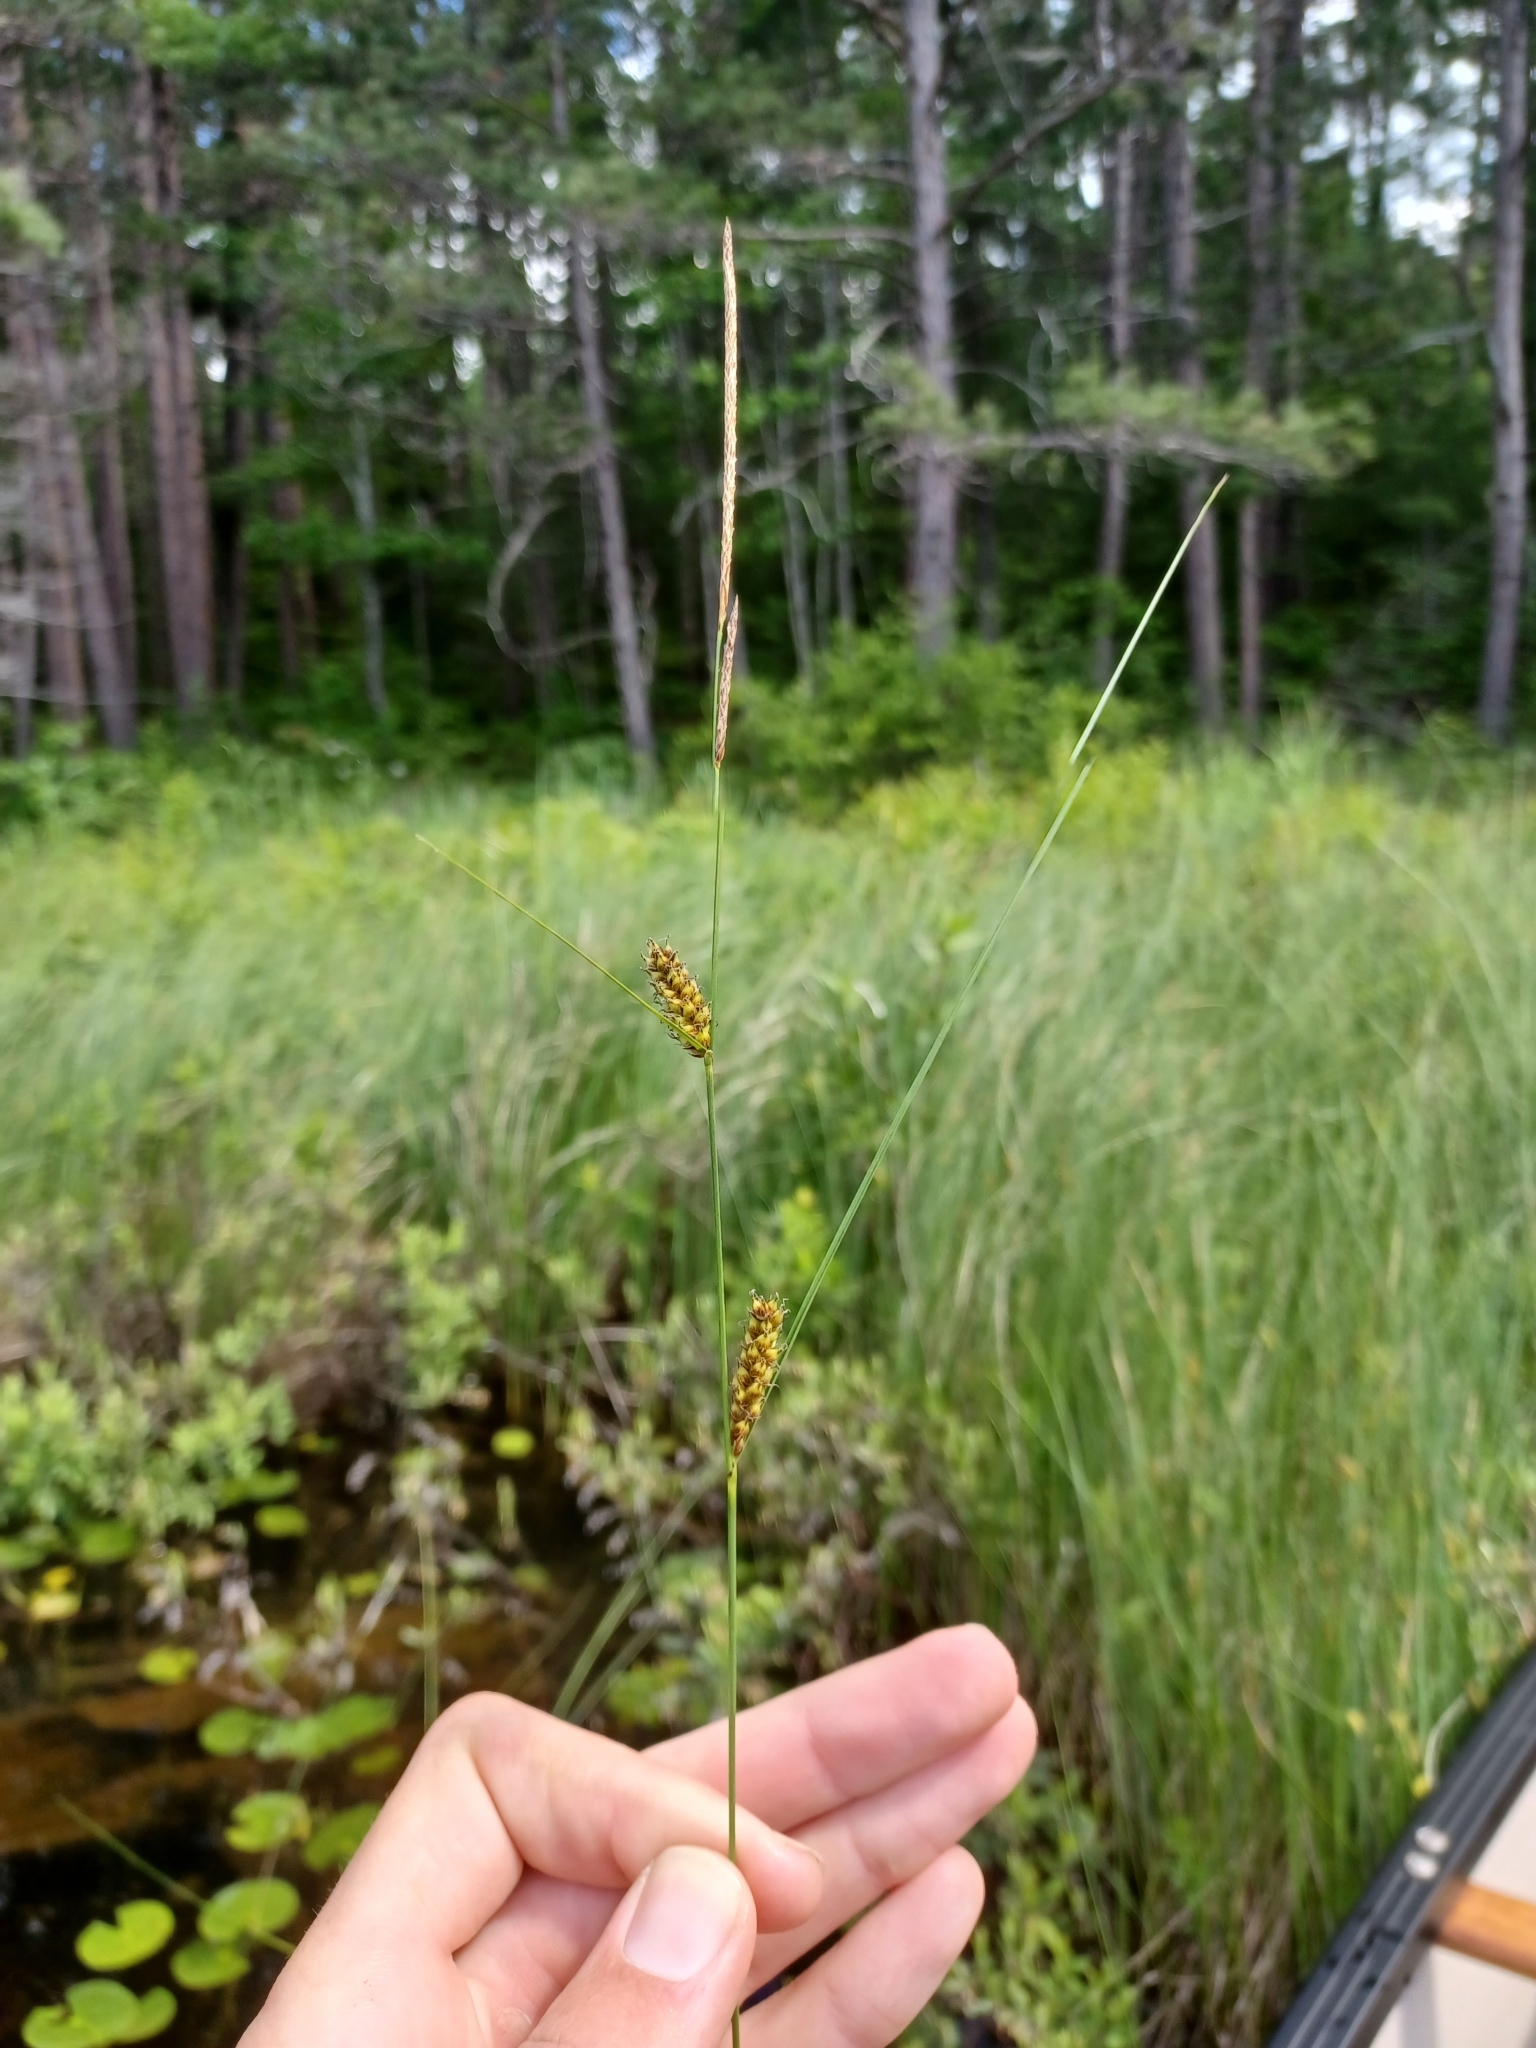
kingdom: Plantae
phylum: Tracheophyta
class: Liliopsida
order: Poales
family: Cyperaceae
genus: Carex
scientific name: Carex lasiocarpa
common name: Slender sedge
